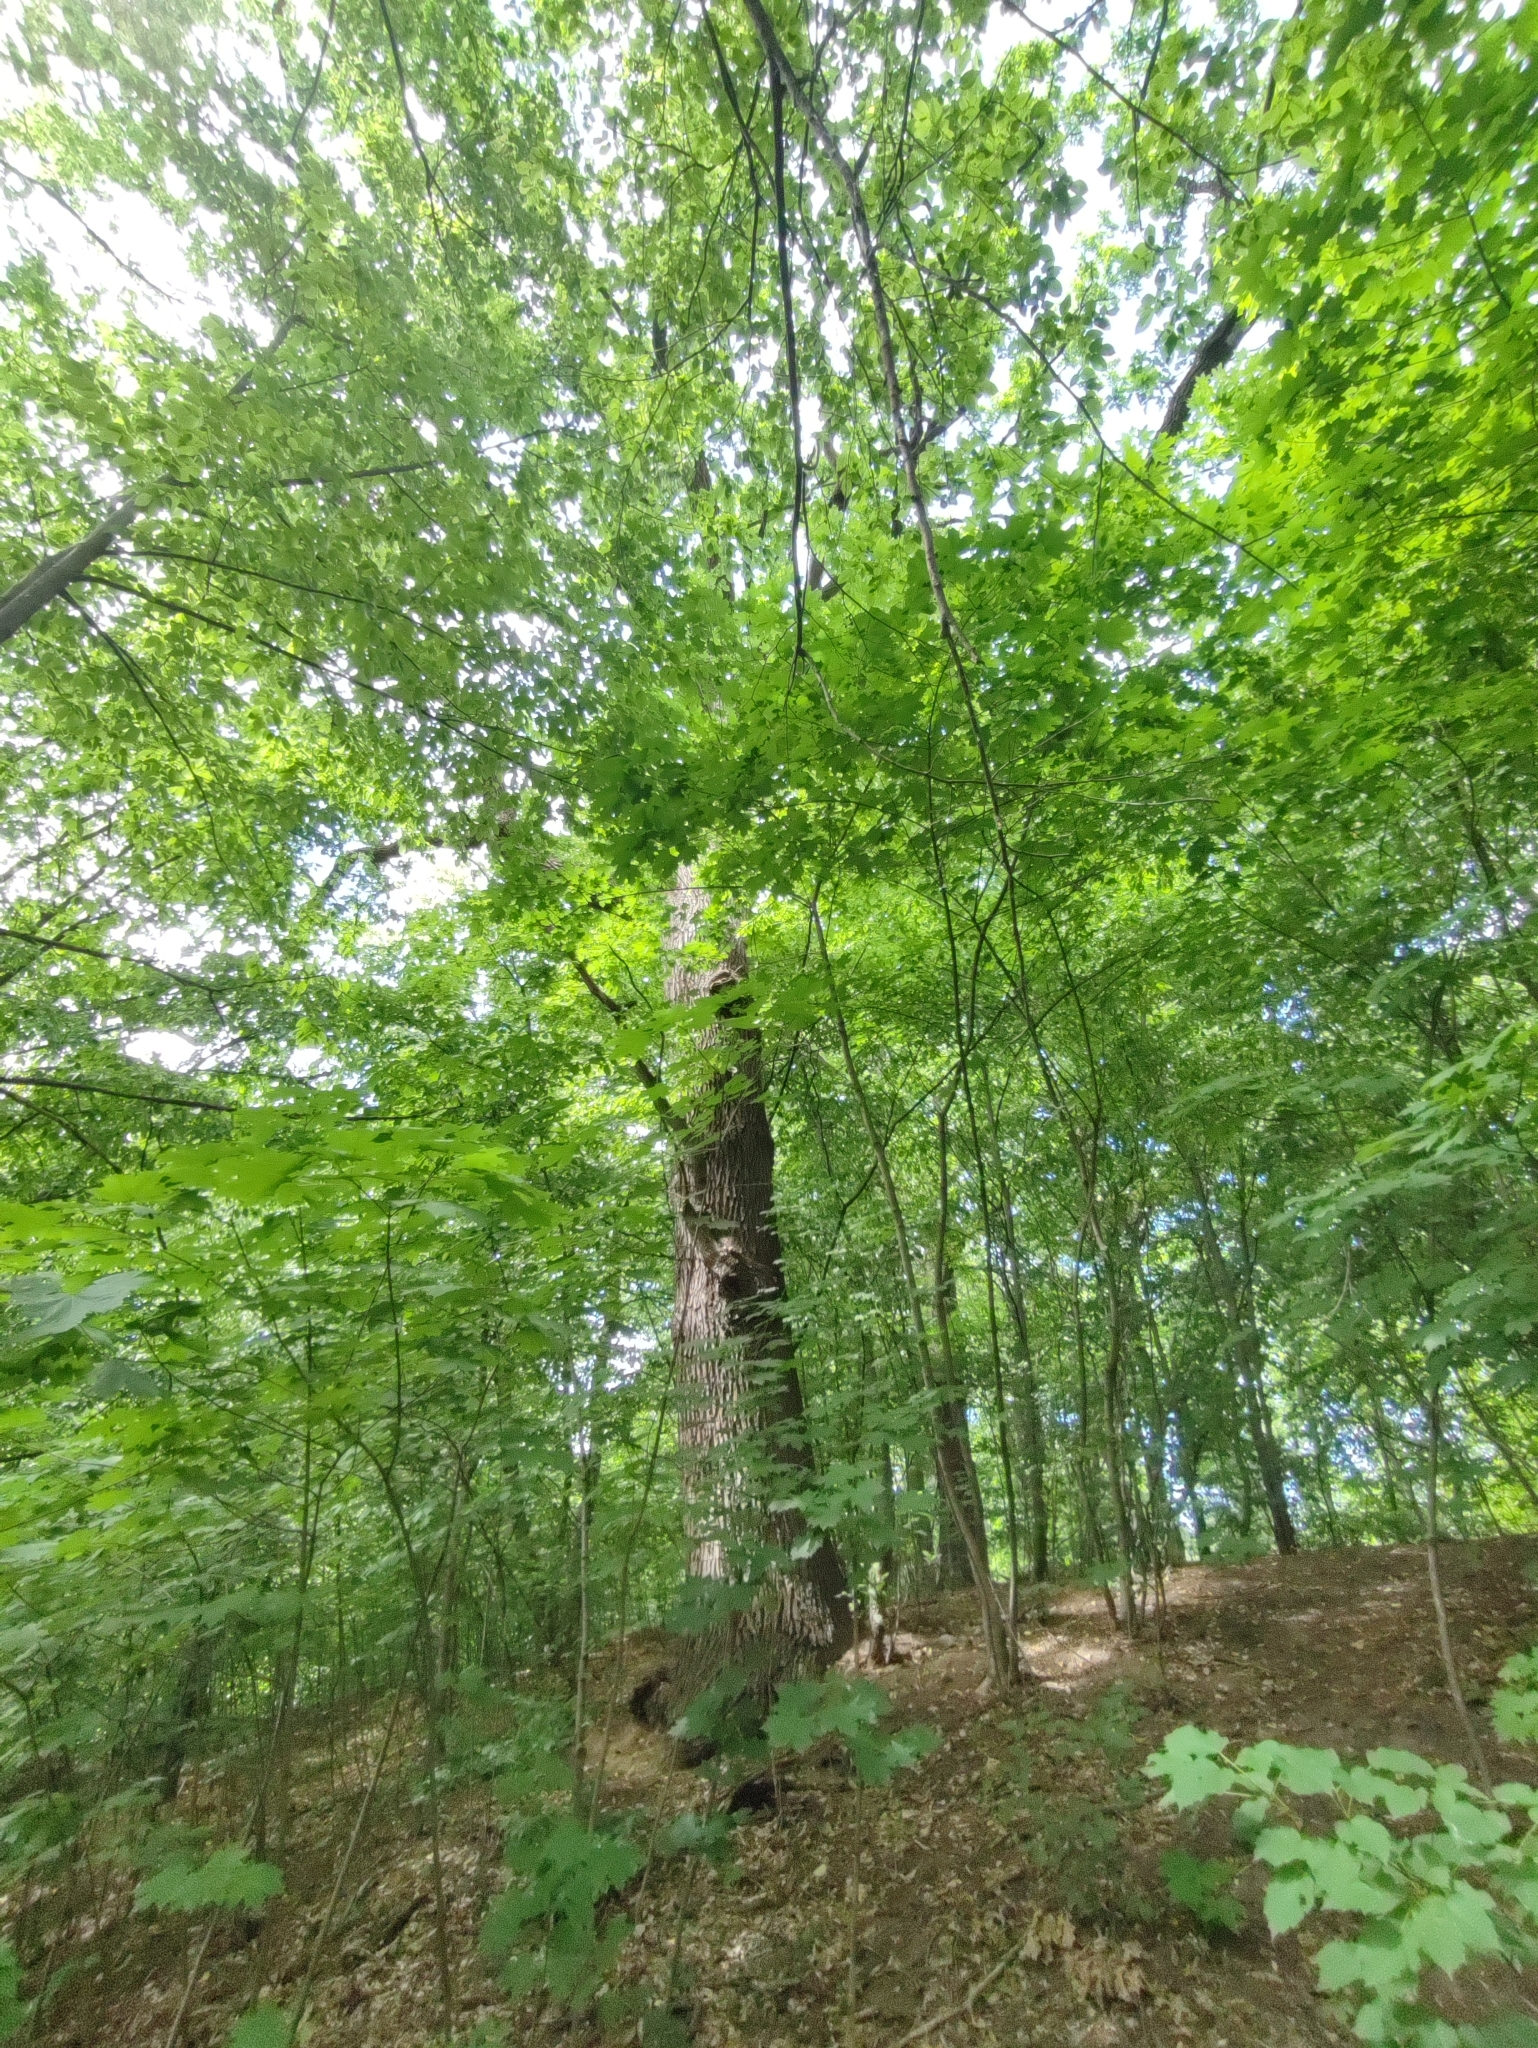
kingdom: Plantae
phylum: Tracheophyta
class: Magnoliopsida
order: Fagales
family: Fagaceae
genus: Quercus
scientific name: Quercus robur
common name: Pedunculate oak
